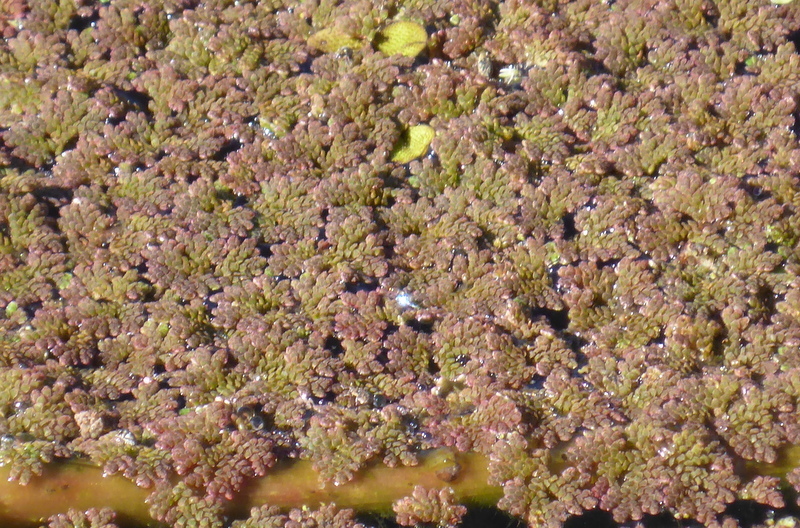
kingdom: Plantae
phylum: Tracheophyta
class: Polypodiopsida
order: Salviniales
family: Salviniaceae
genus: Azolla
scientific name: Azolla caroliniana
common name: Carolina mosquitofern
